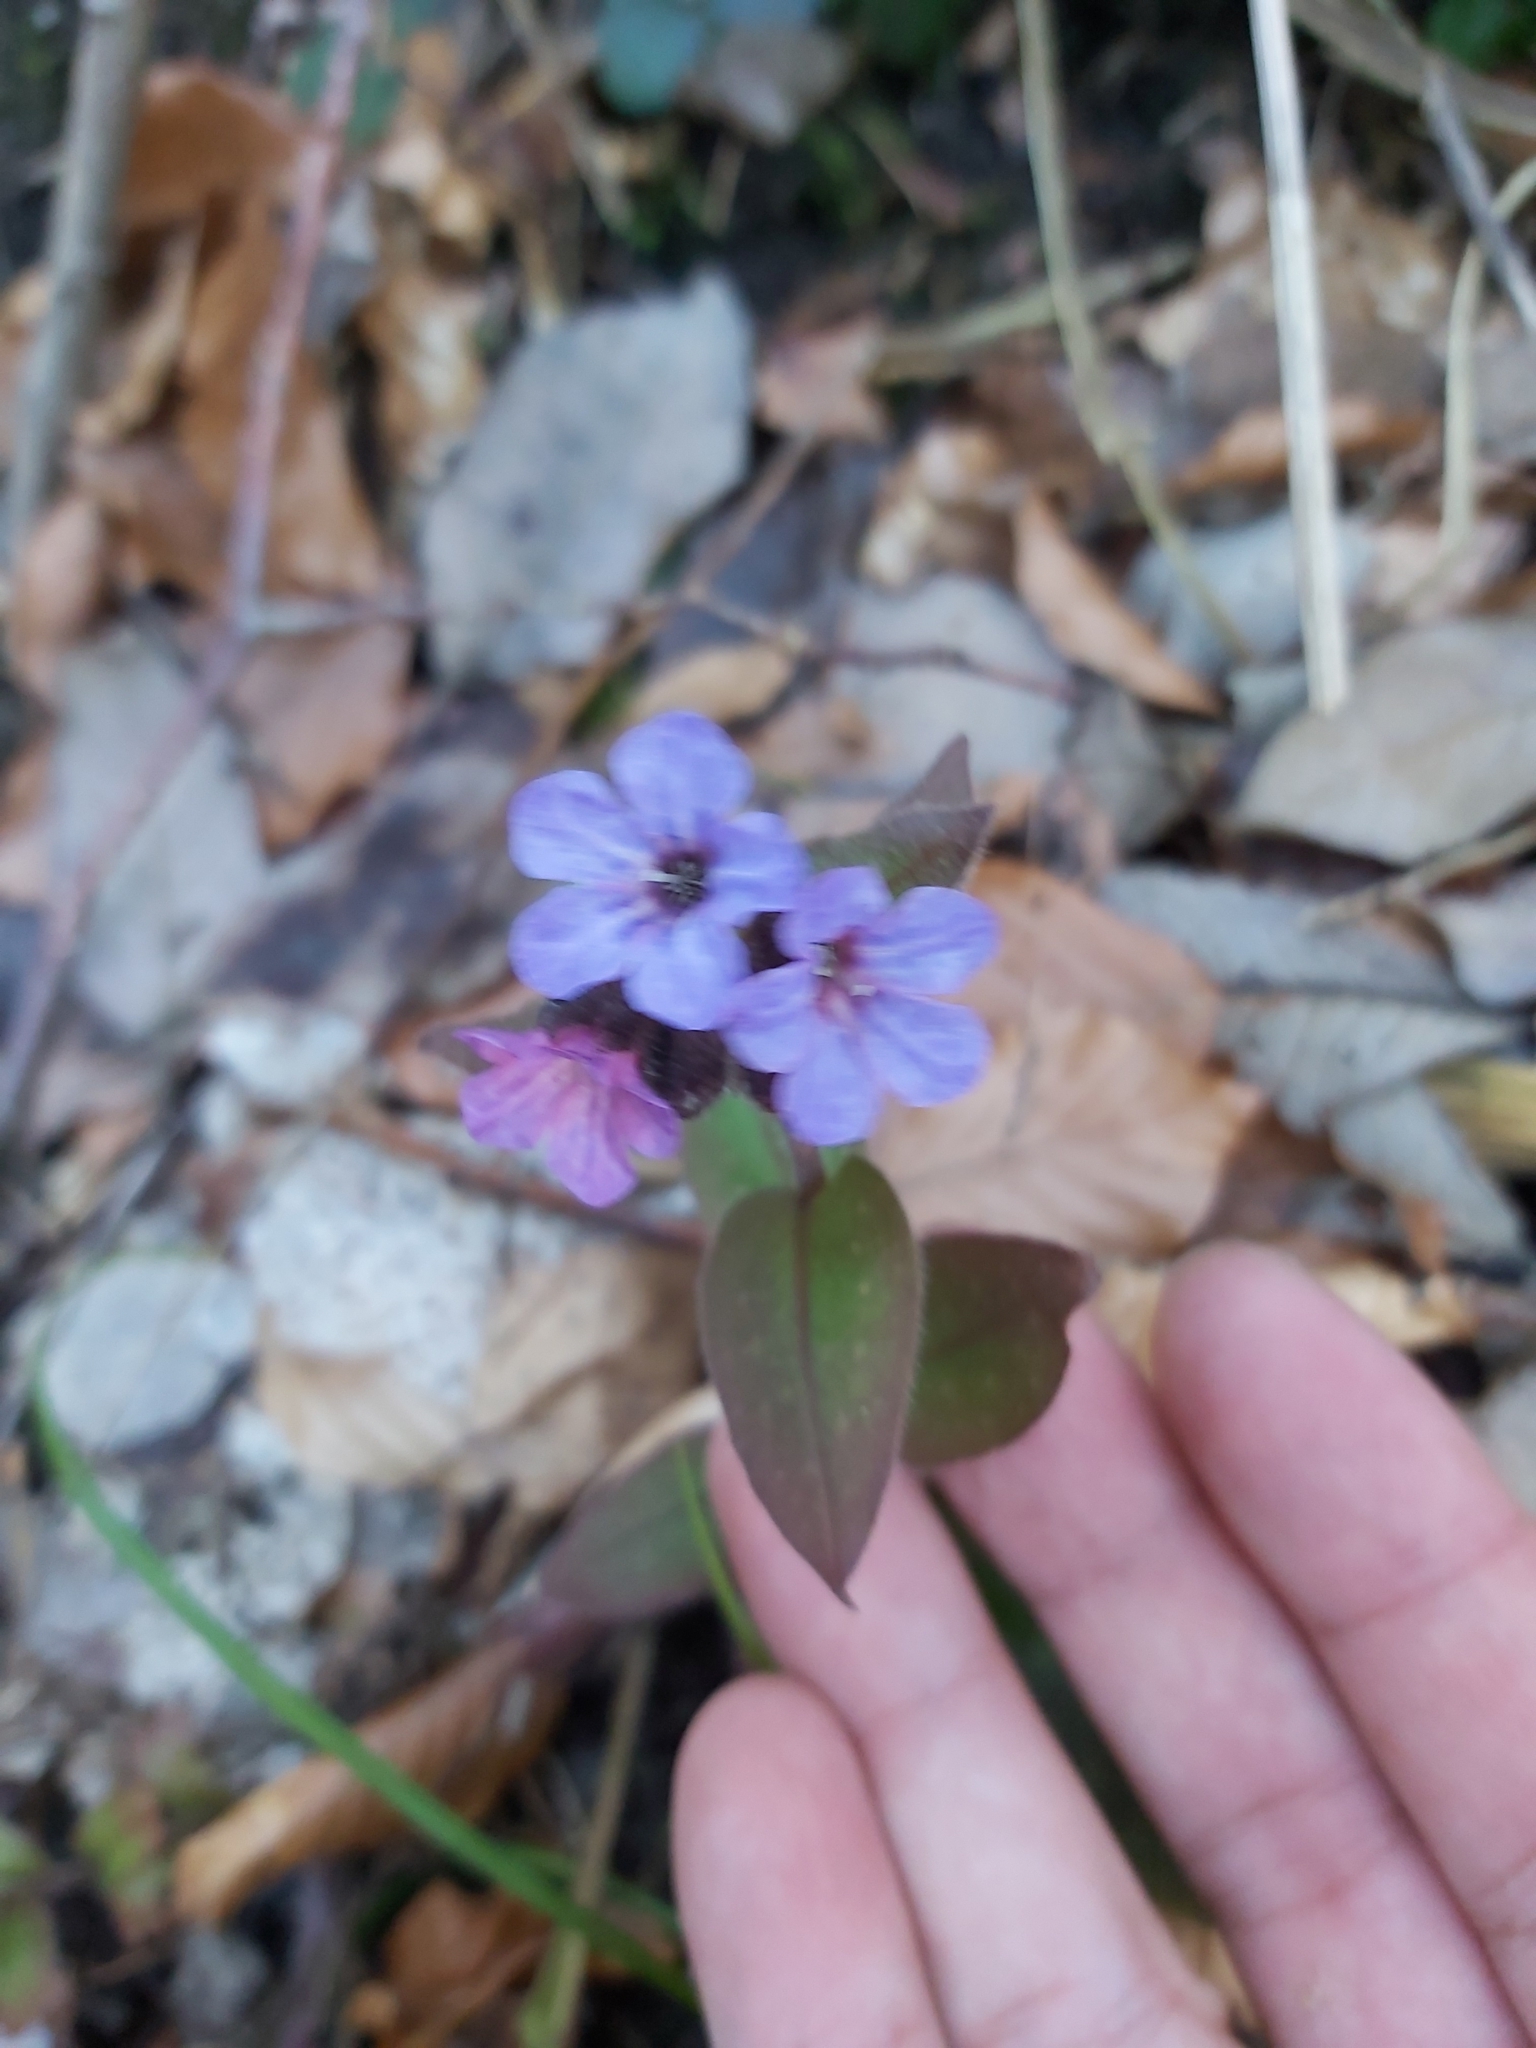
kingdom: Plantae
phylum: Tracheophyta
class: Magnoliopsida
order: Boraginales
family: Boraginaceae
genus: Pulmonaria
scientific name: Pulmonaria officinalis
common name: Lungwort
